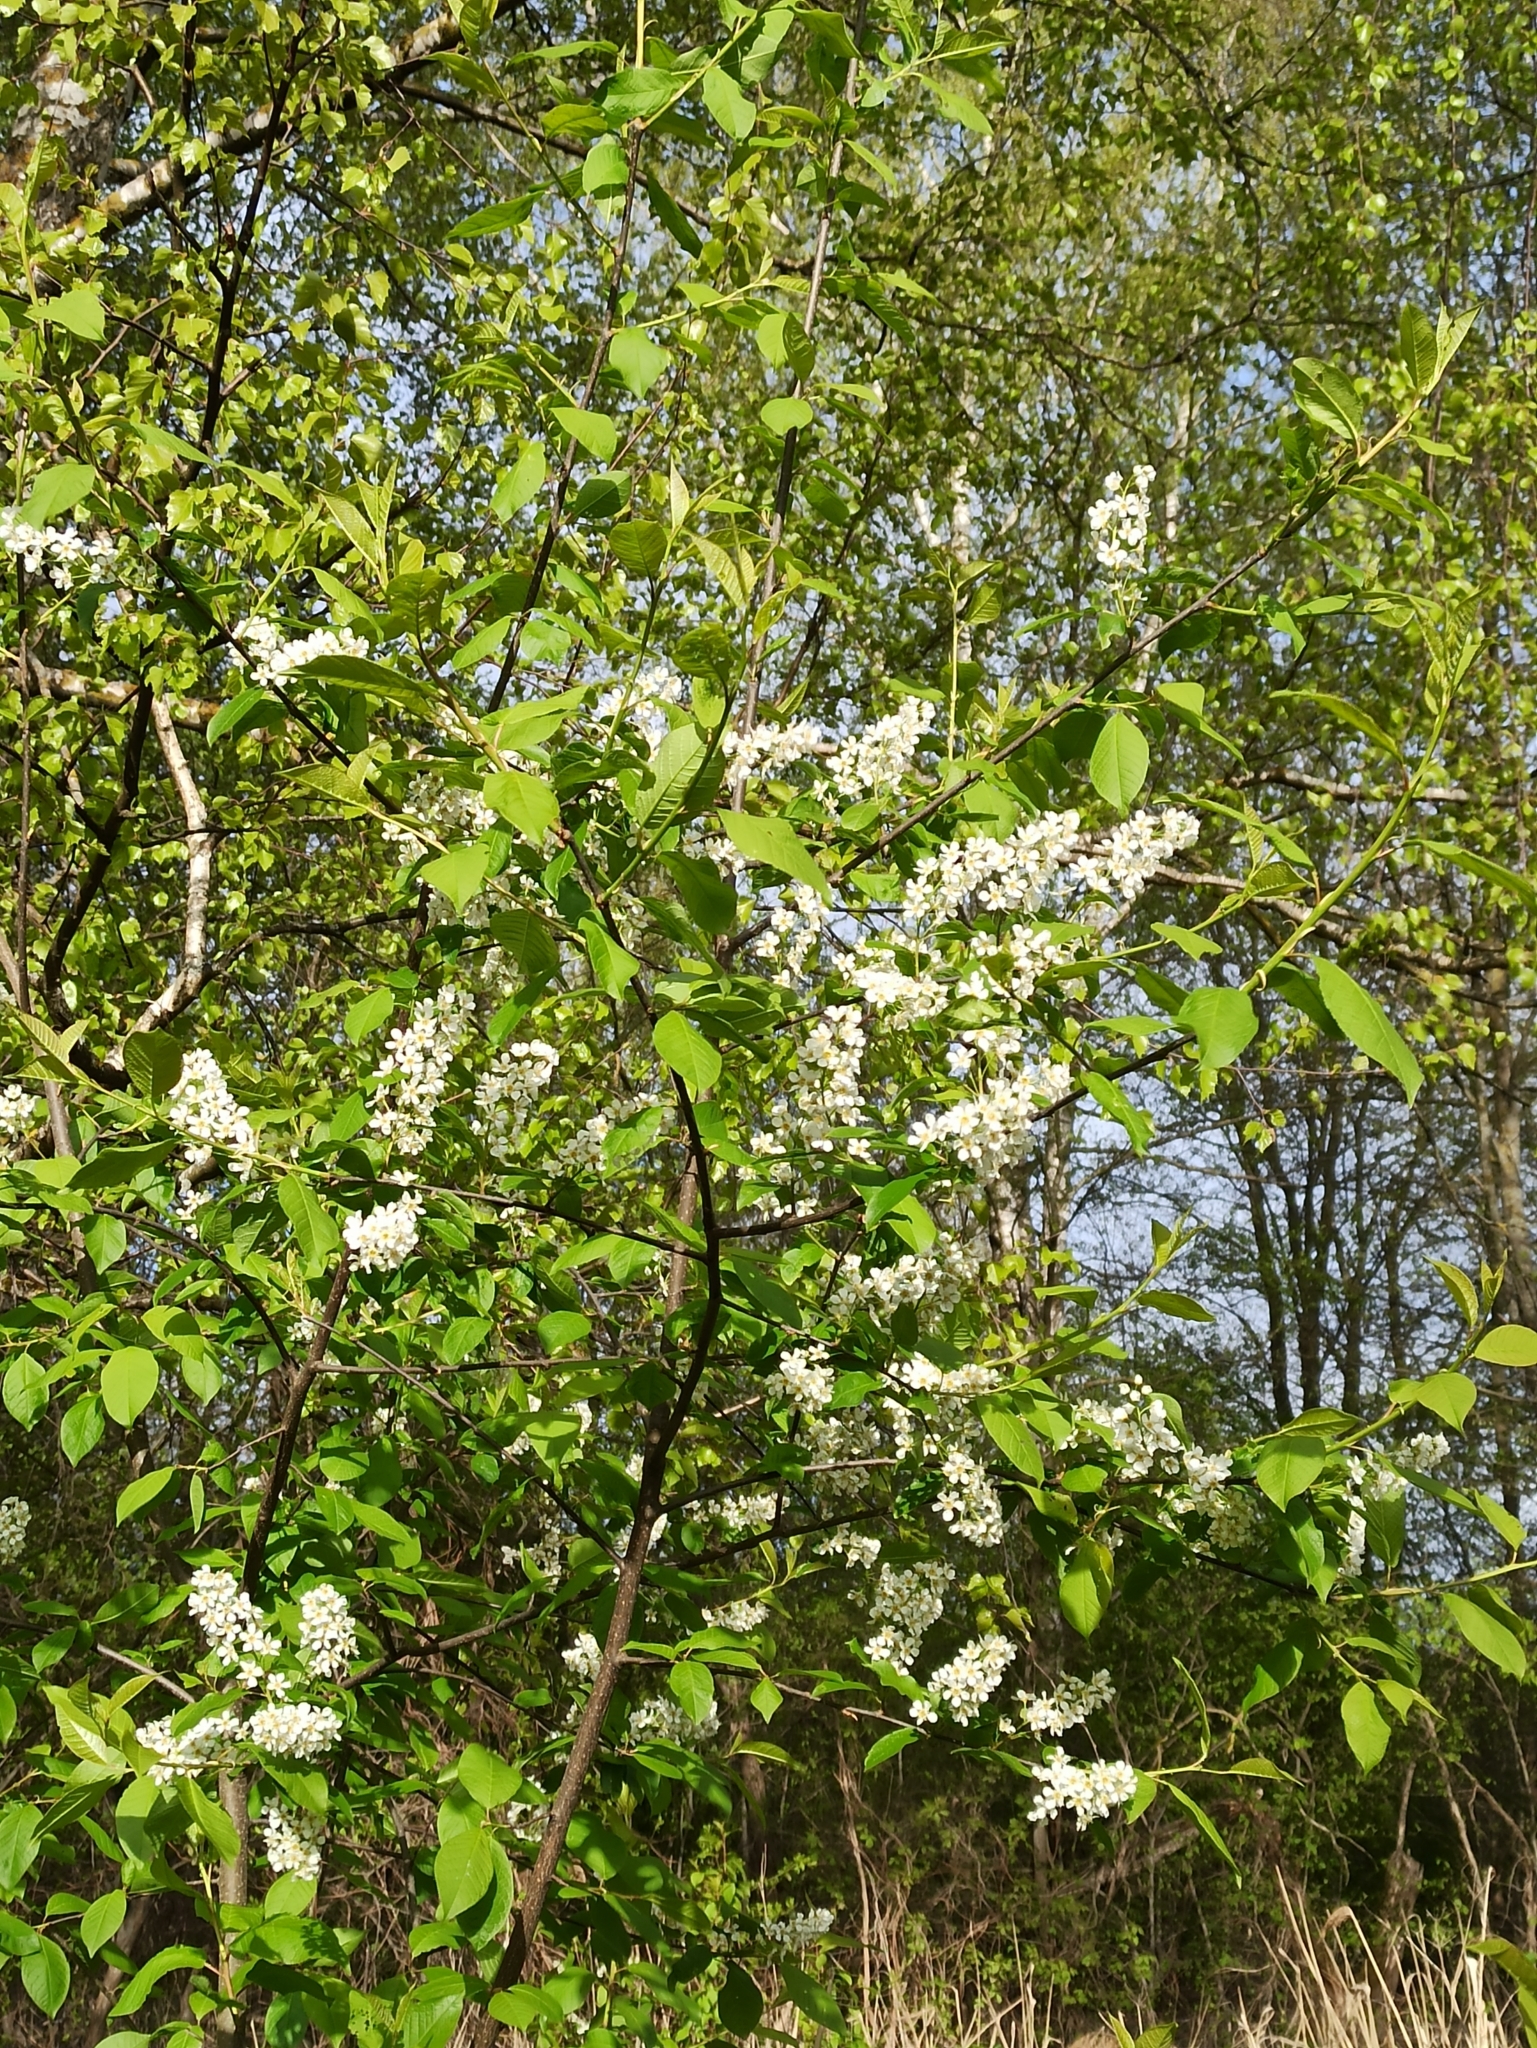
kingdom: Plantae
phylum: Tracheophyta
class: Magnoliopsida
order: Rosales
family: Rosaceae
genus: Prunus
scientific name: Prunus padus
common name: Bird cherry
